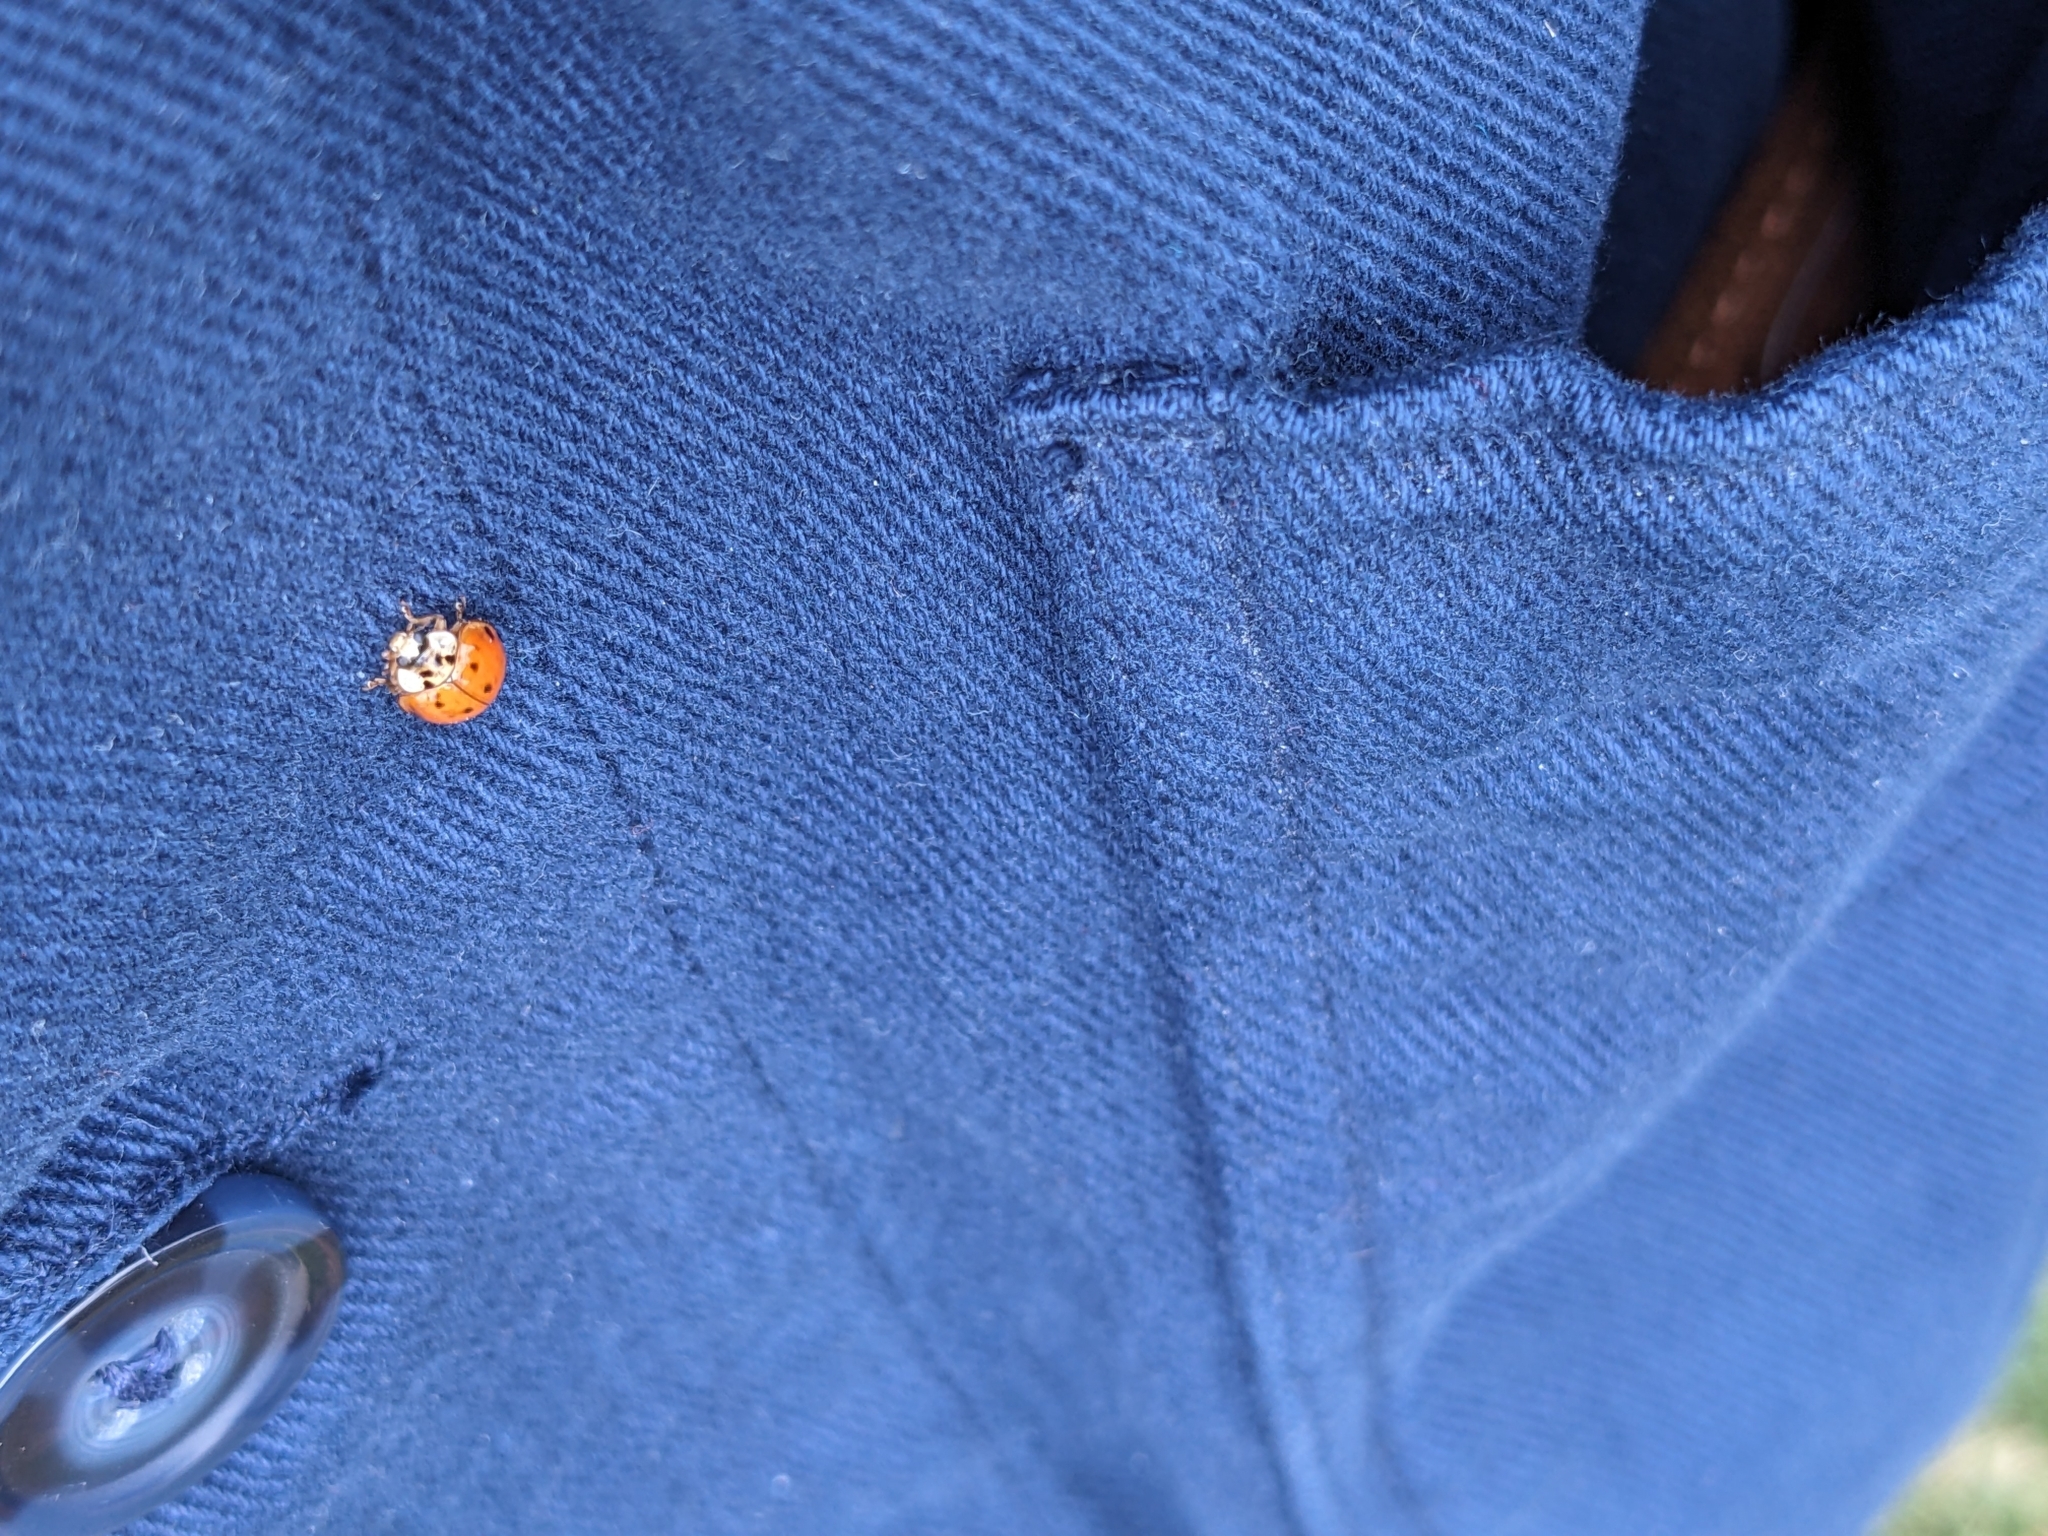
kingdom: Animalia
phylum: Arthropoda
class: Insecta
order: Coleoptera
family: Coccinellidae
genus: Harmonia
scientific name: Harmonia axyridis
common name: Harlequin ladybird
